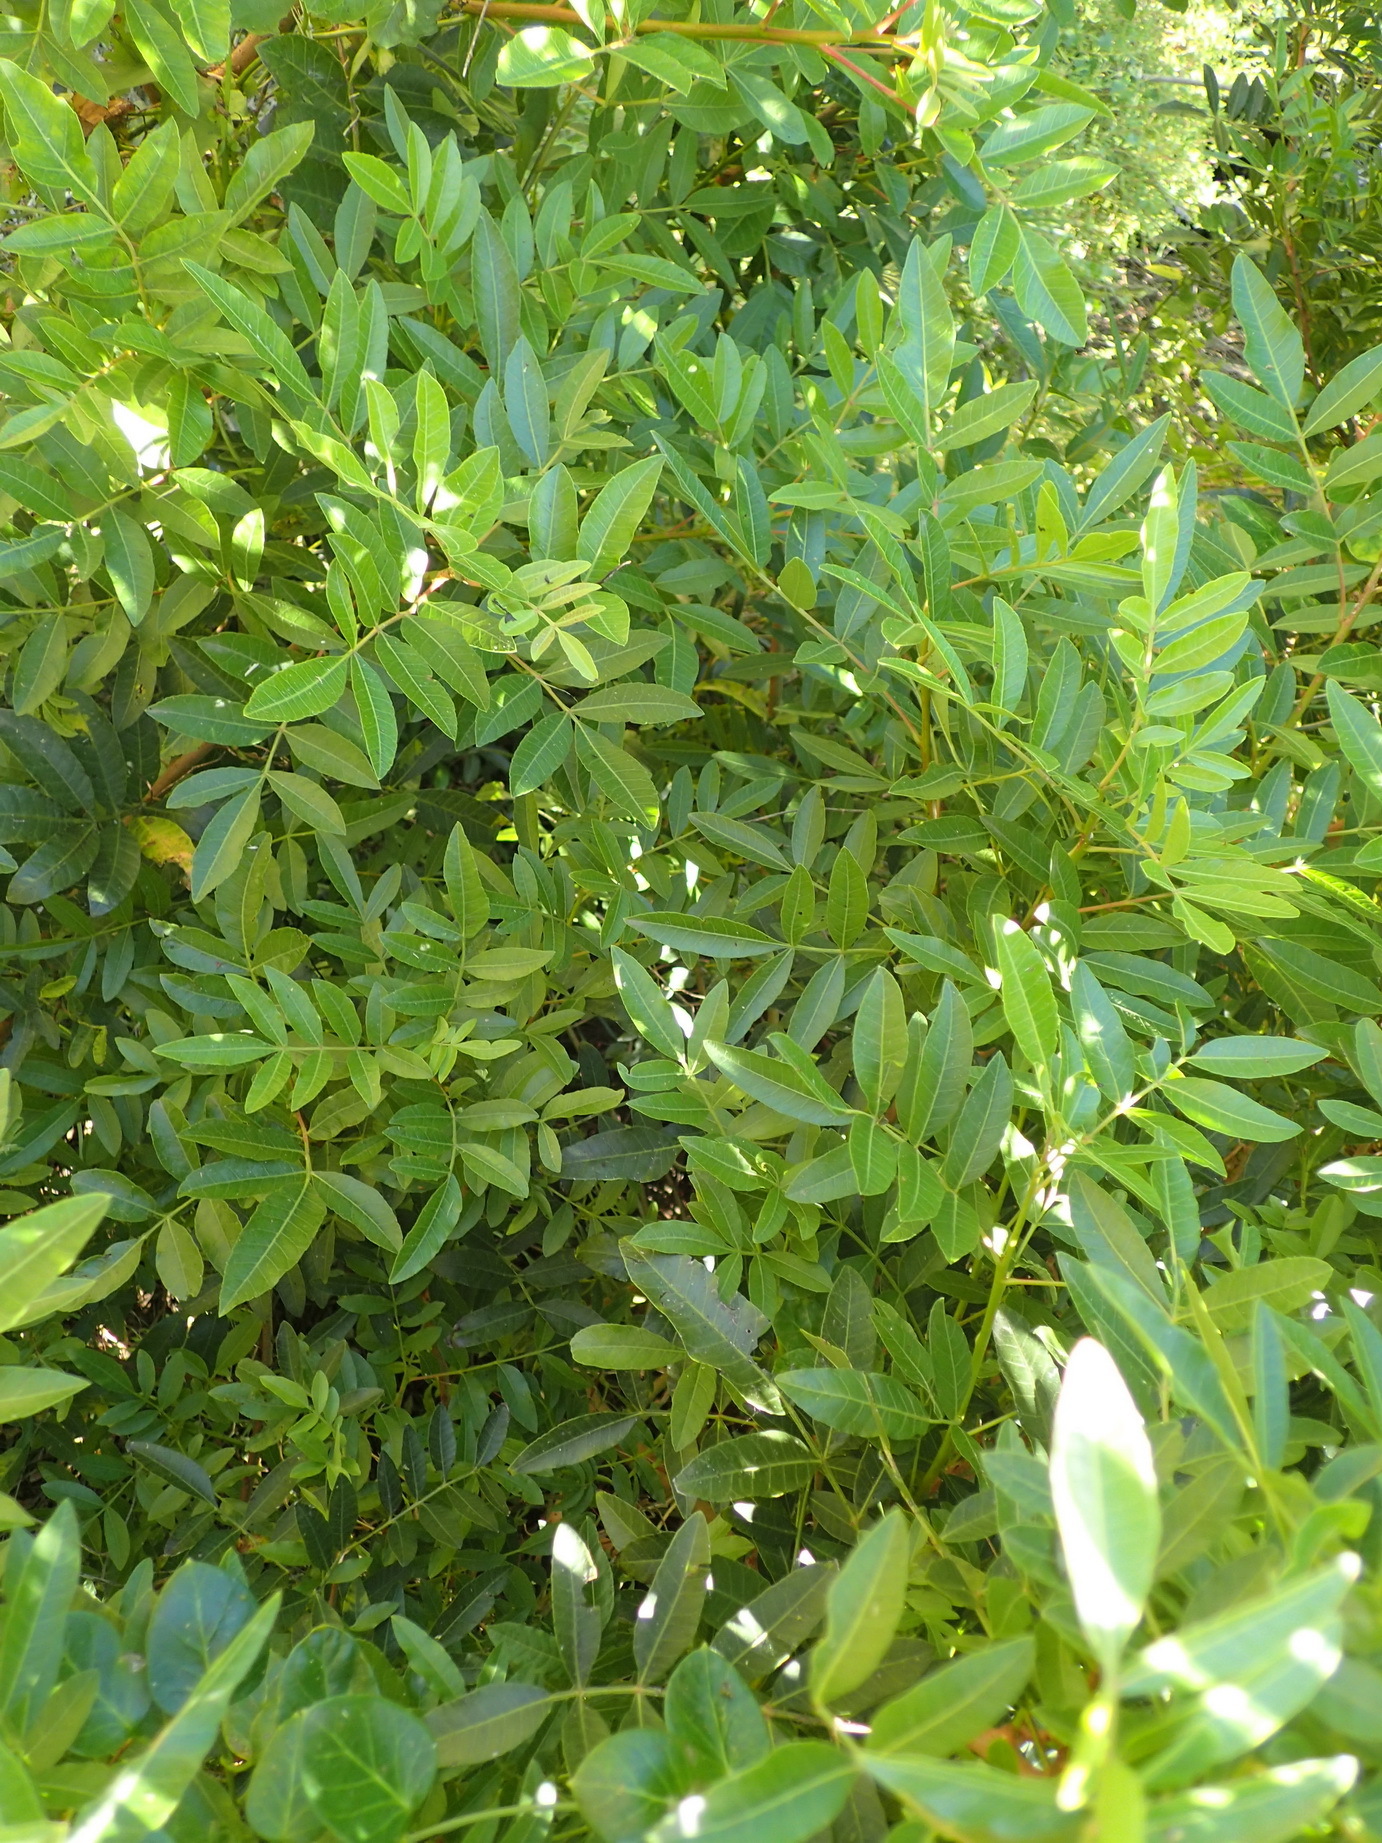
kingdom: Plantae
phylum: Tracheophyta
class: Magnoliopsida
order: Sapindales
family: Anacardiaceae
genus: Schinus
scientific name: Schinus terebinthifolia
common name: Brazilian peppertree
